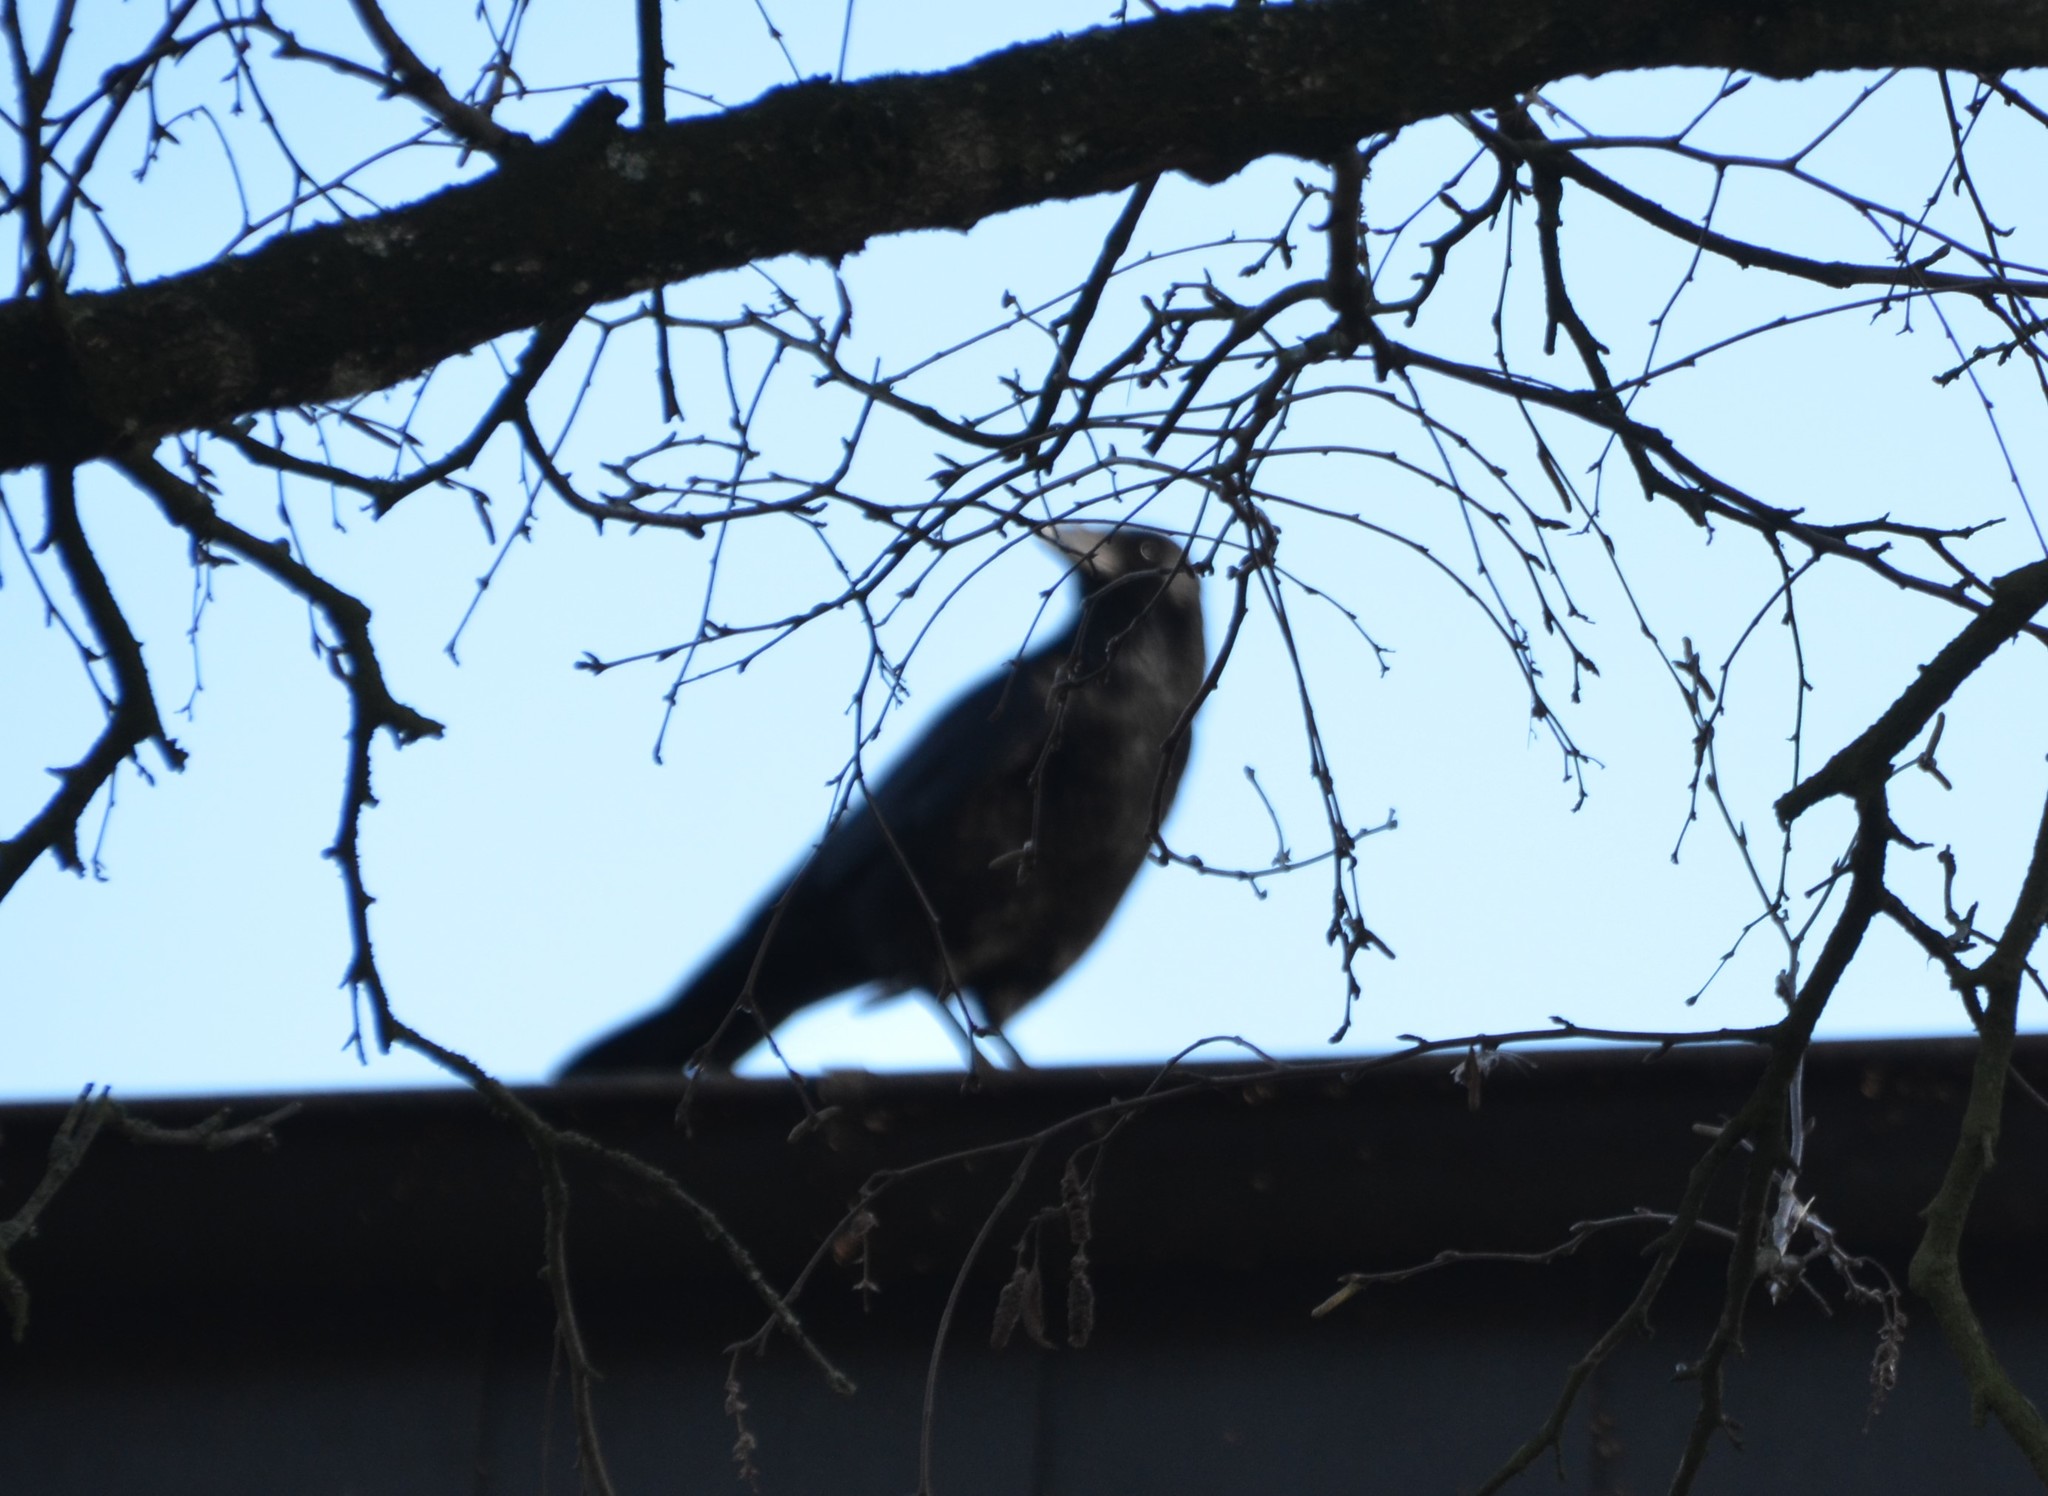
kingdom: Animalia
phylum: Chordata
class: Aves
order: Passeriformes
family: Corvidae
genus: Corvus
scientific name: Corvus corone
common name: Carrion crow
